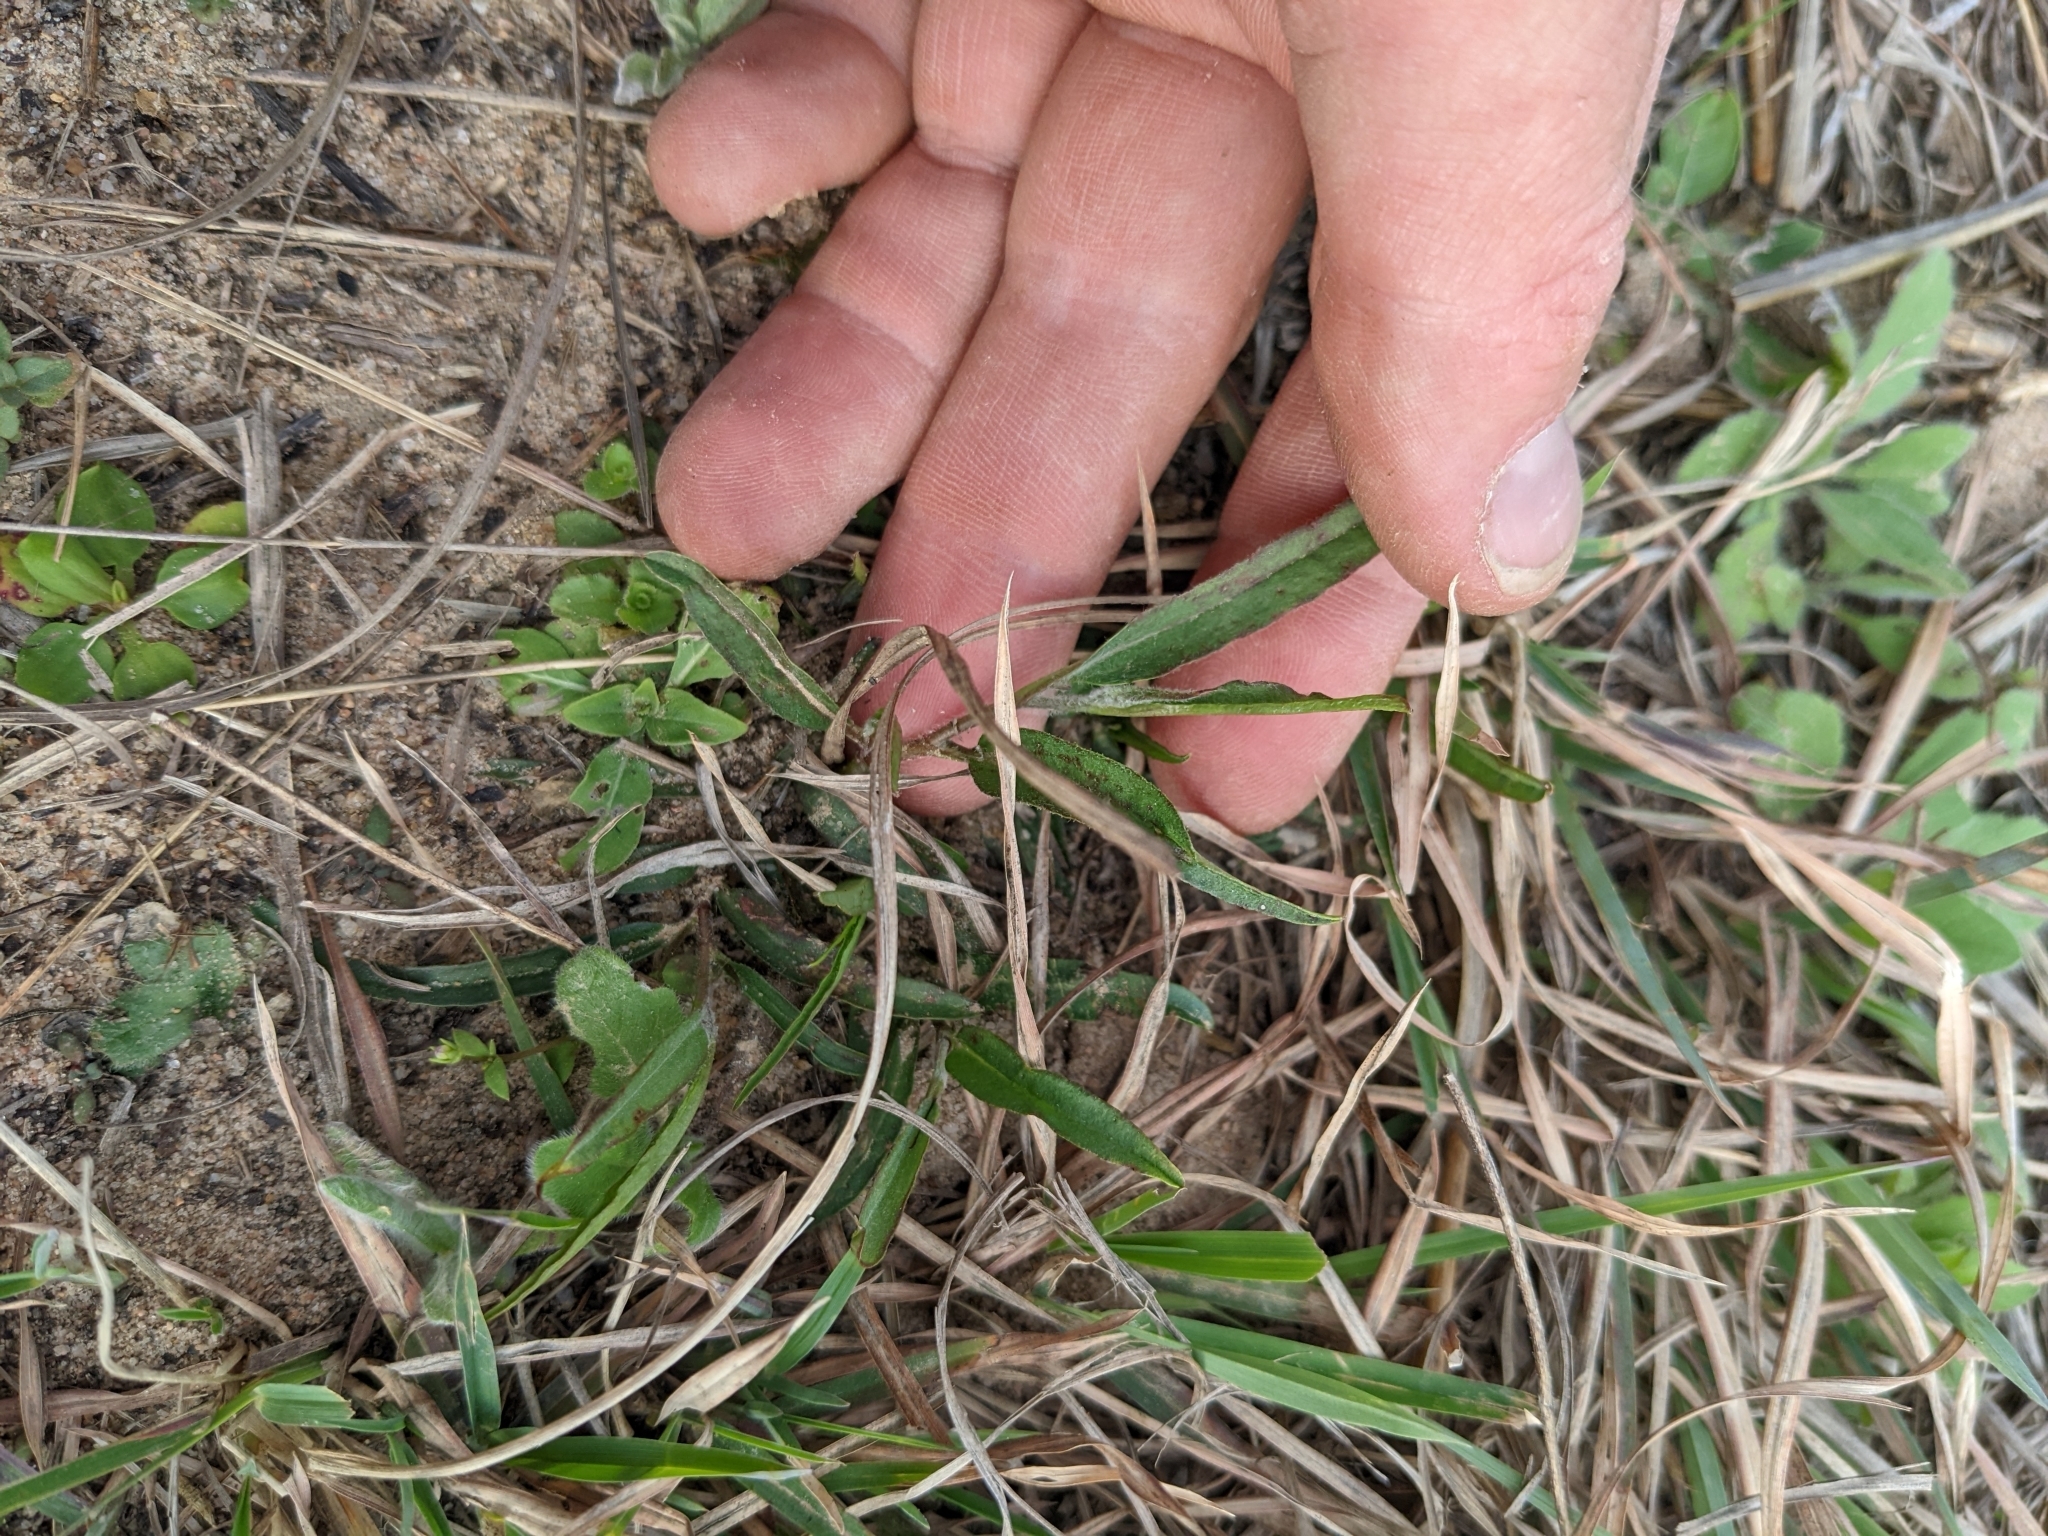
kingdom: Plantae
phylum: Tracheophyta
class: Magnoliopsida
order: Piperales
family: Aristolochiaceae
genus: Aristolochia
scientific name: Aristolochia erecta
